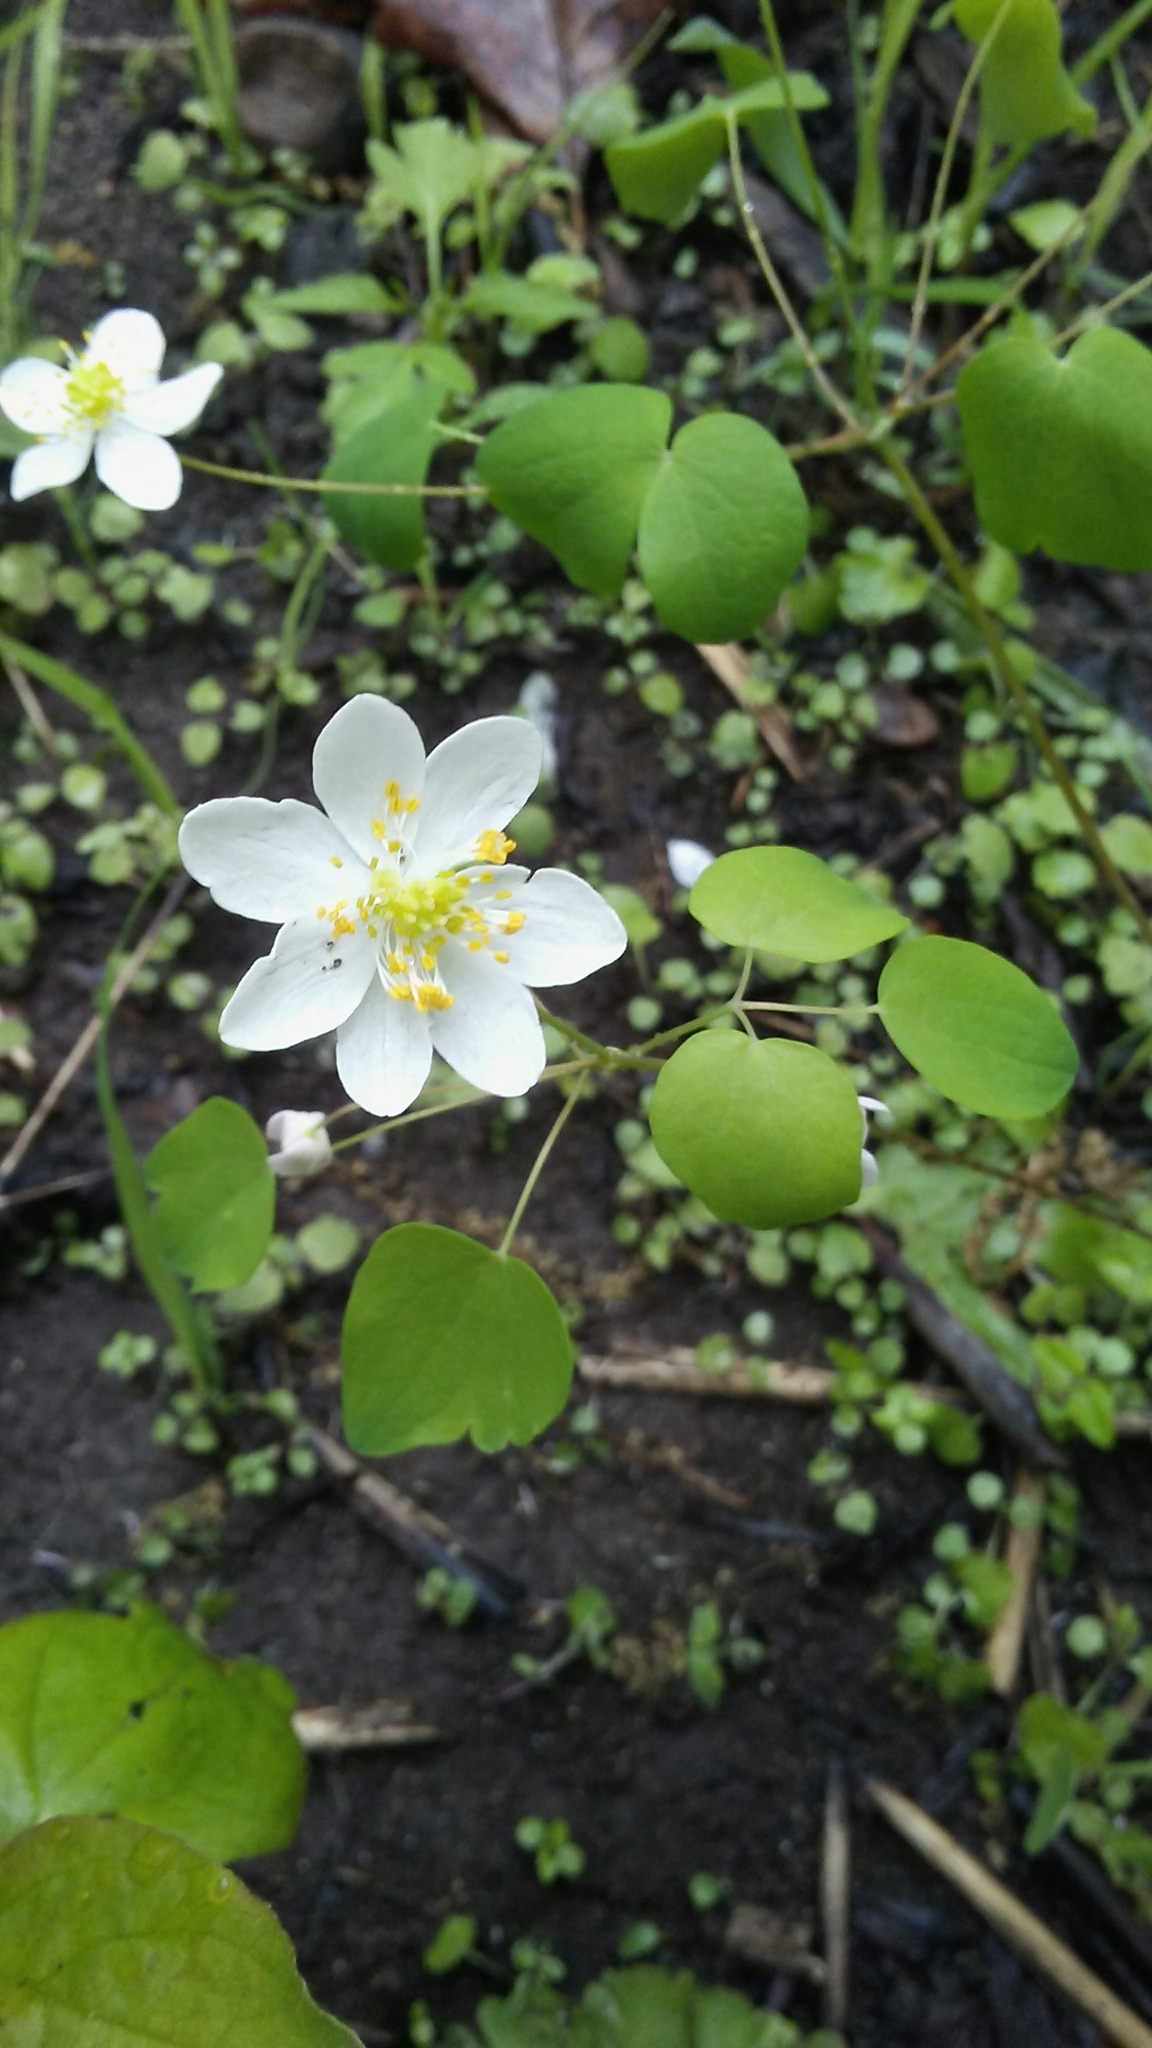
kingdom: Plantae
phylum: Tracheophyta
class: Magnoliopsida
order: Ranunculales
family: Ranunculaceae
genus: Thalictrum
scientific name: Thalictrum thalictroides
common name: Rue-anemone
